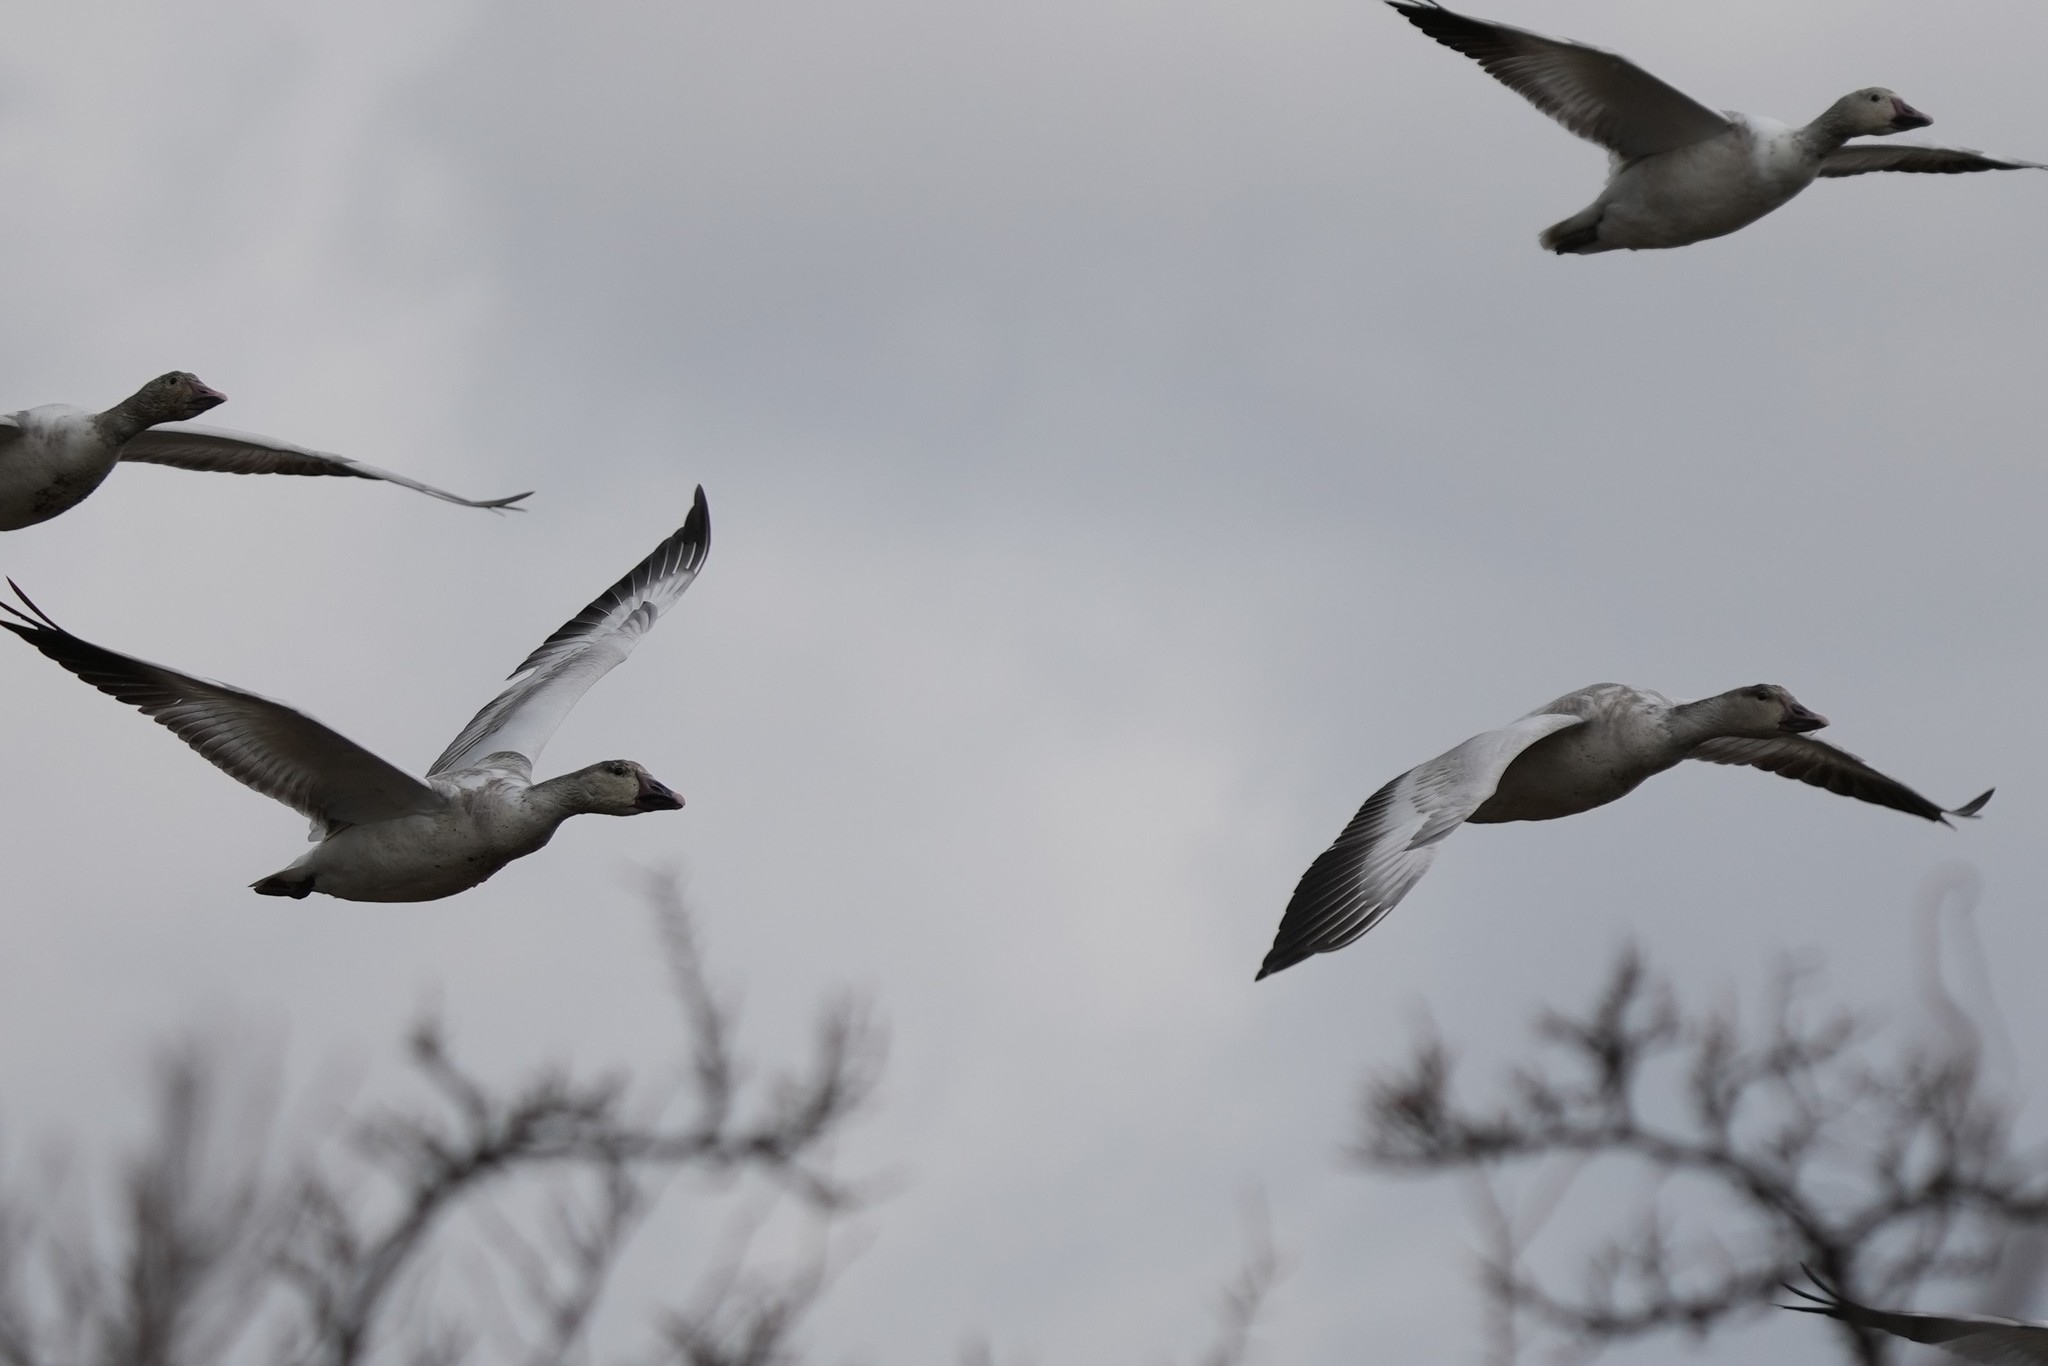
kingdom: Animalia
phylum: Chordata
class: Aves
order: Anseriformes
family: Anatidae
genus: Anser
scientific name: Anser caerulescens
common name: Snow goose
